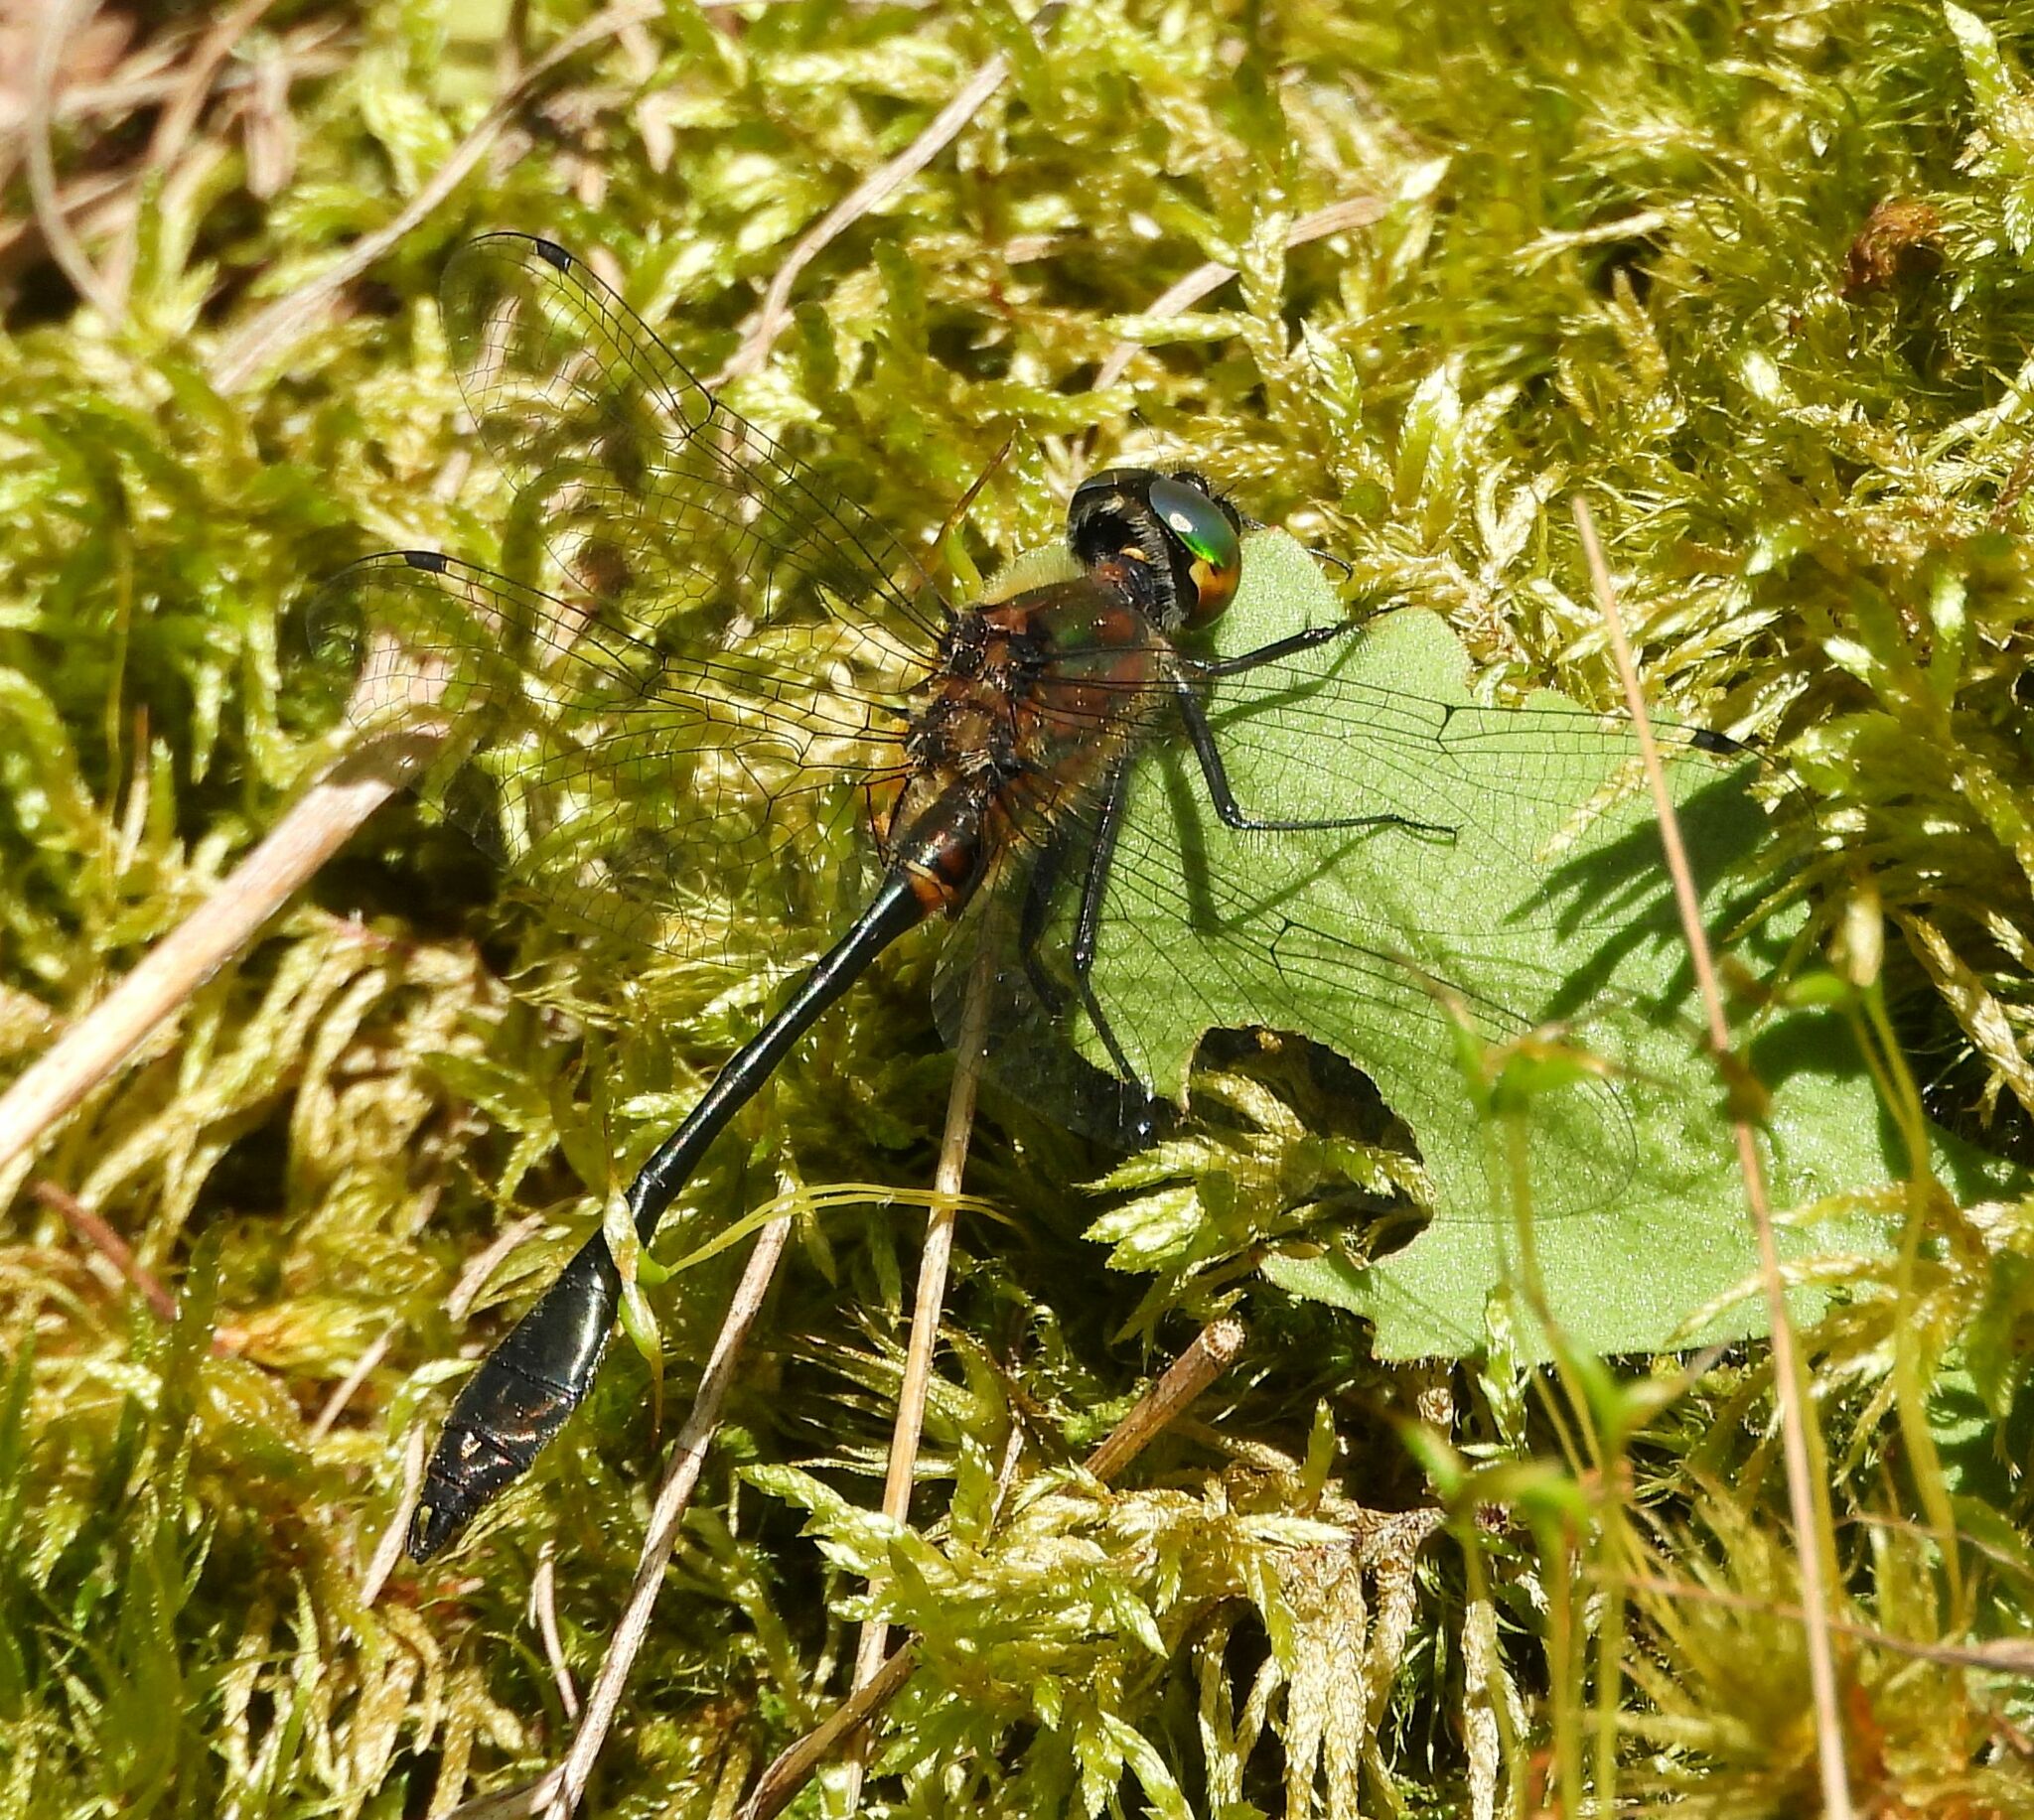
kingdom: Animalia
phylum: Arthropoda
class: Insecta
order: Odonata
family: Corduliidae
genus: Dorocordulia
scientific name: Dorocordulia libera
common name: Racket-tailed emerald
